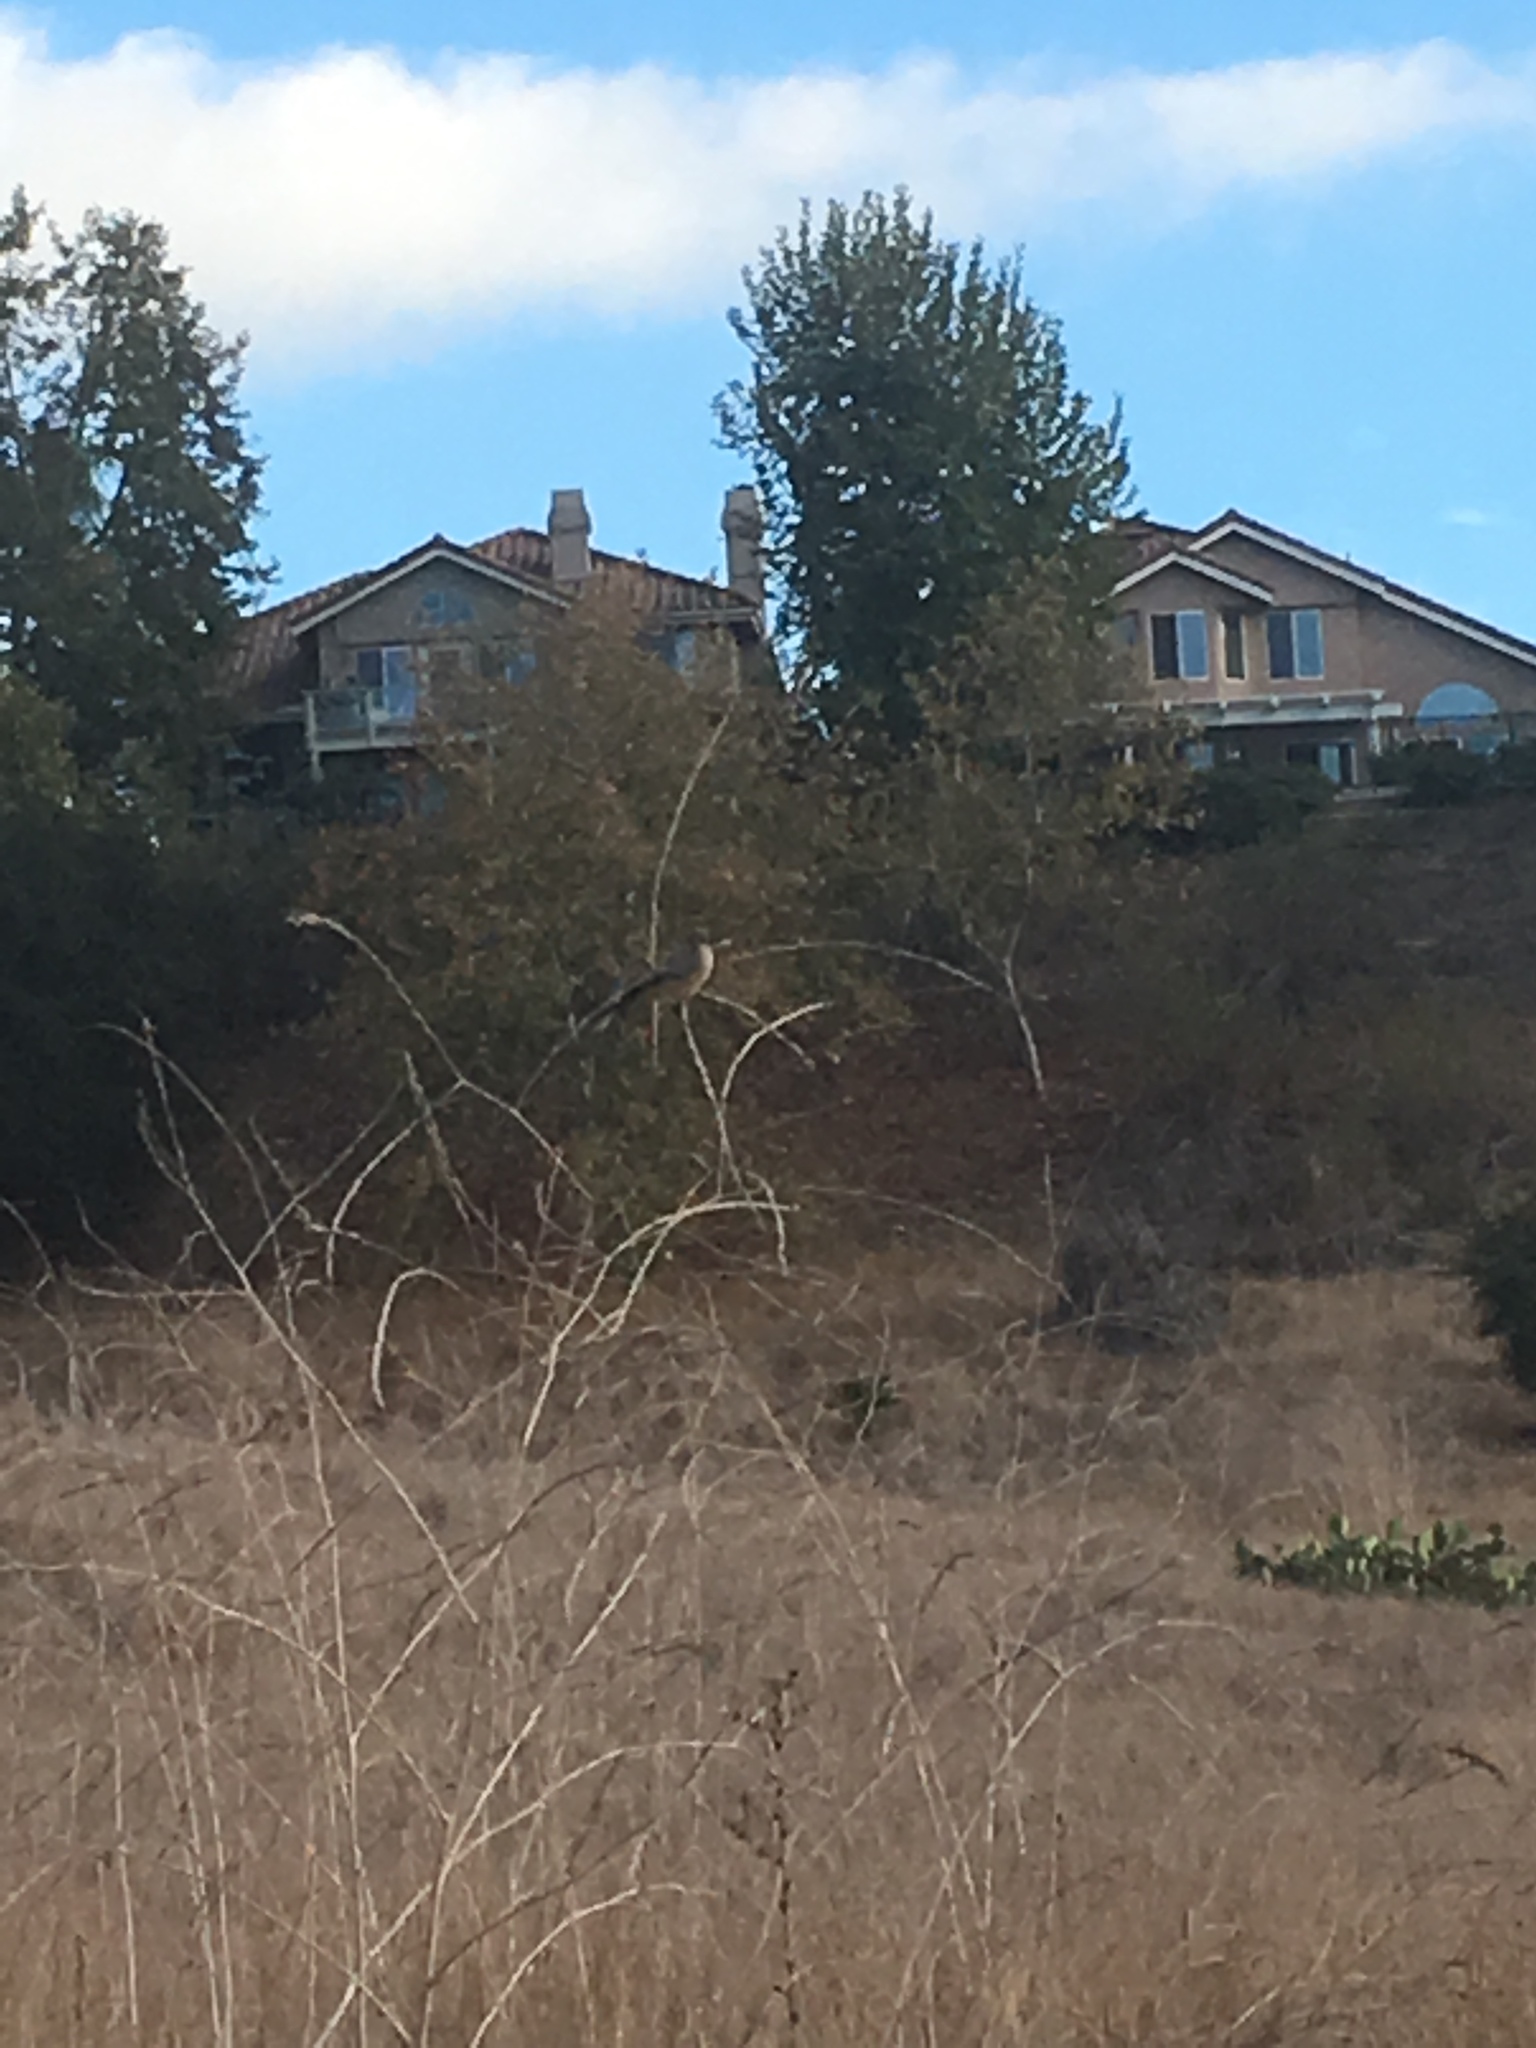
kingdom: Animalia
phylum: Chordata
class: Aves
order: Passeriformes
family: Tyrannidae
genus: Sayornis
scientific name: Sayornis saya
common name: Say's phoebe
